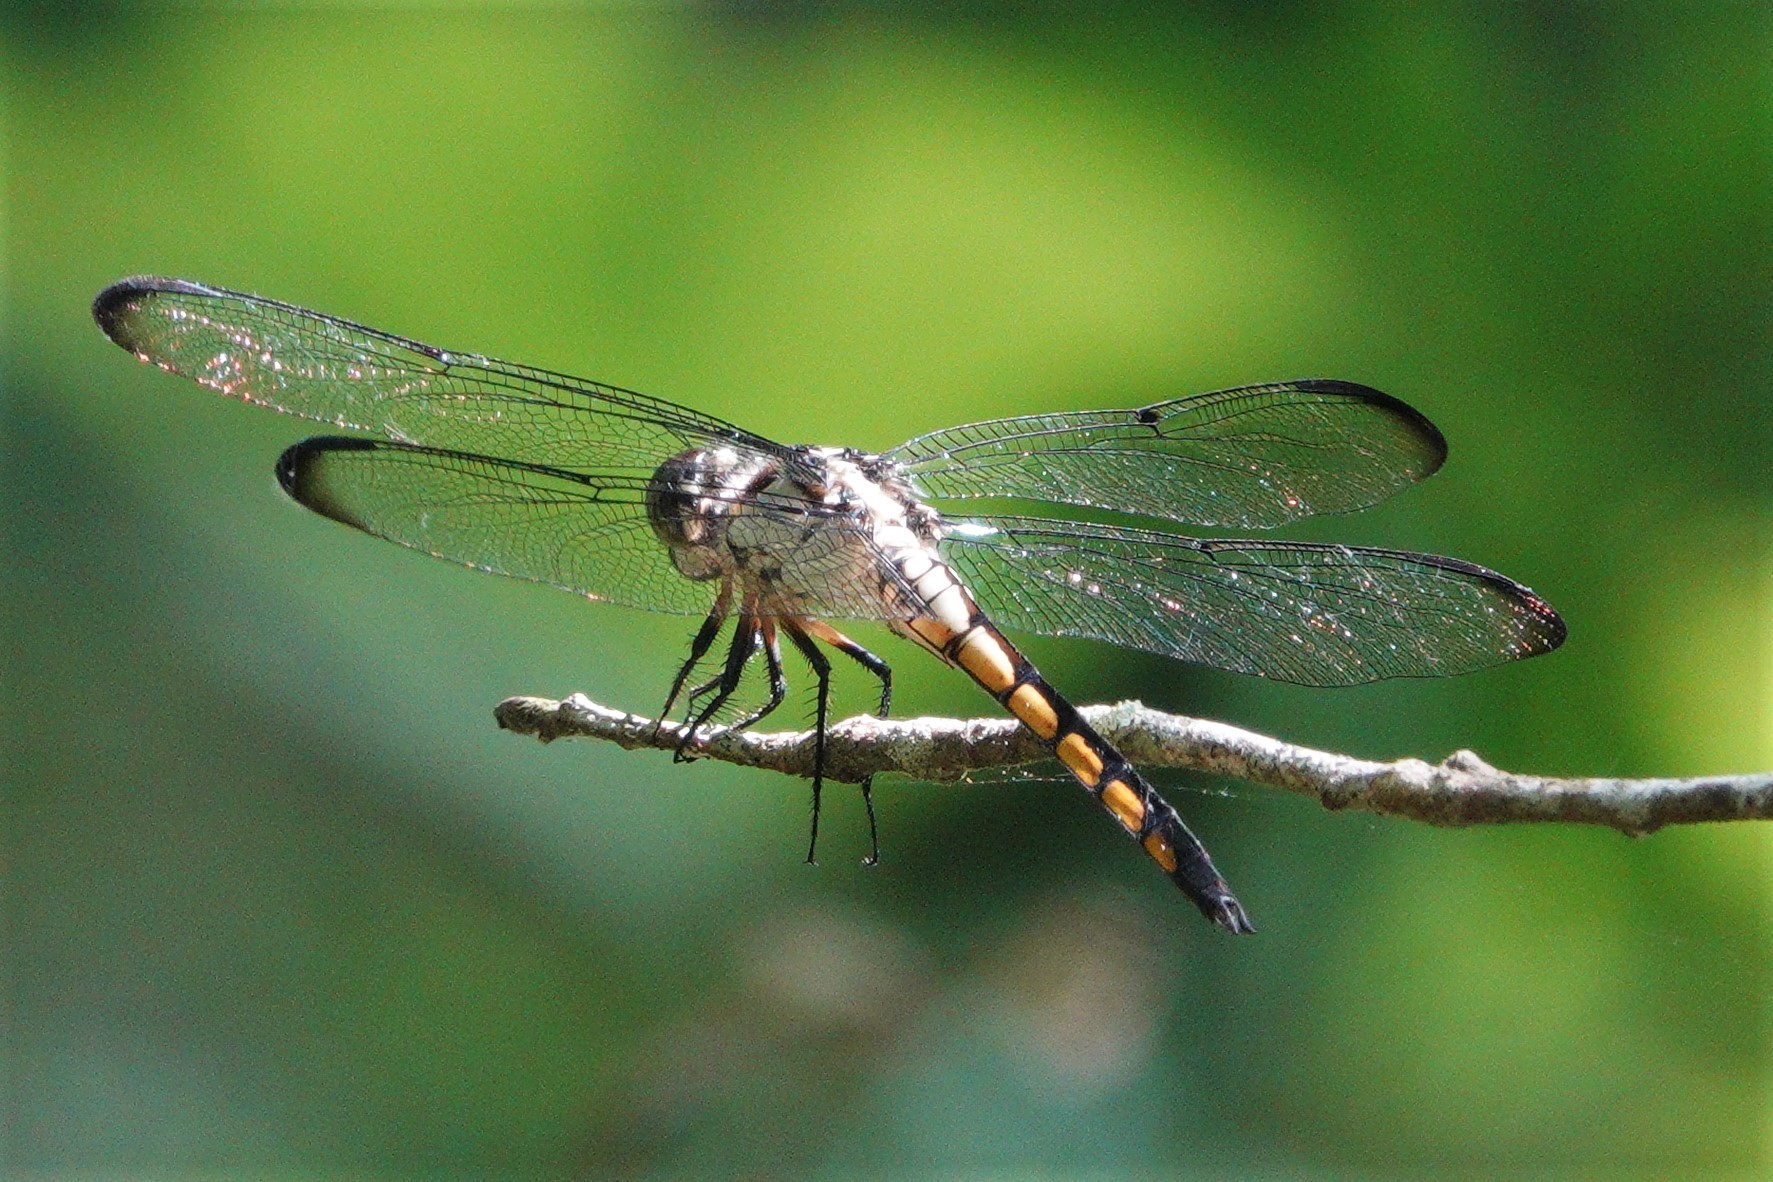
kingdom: Animalia
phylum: Arthropoda
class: Insecta
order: Odonata
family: Libellulidae
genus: Libellula
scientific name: Libellula vibrans
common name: Great blue skimmer
